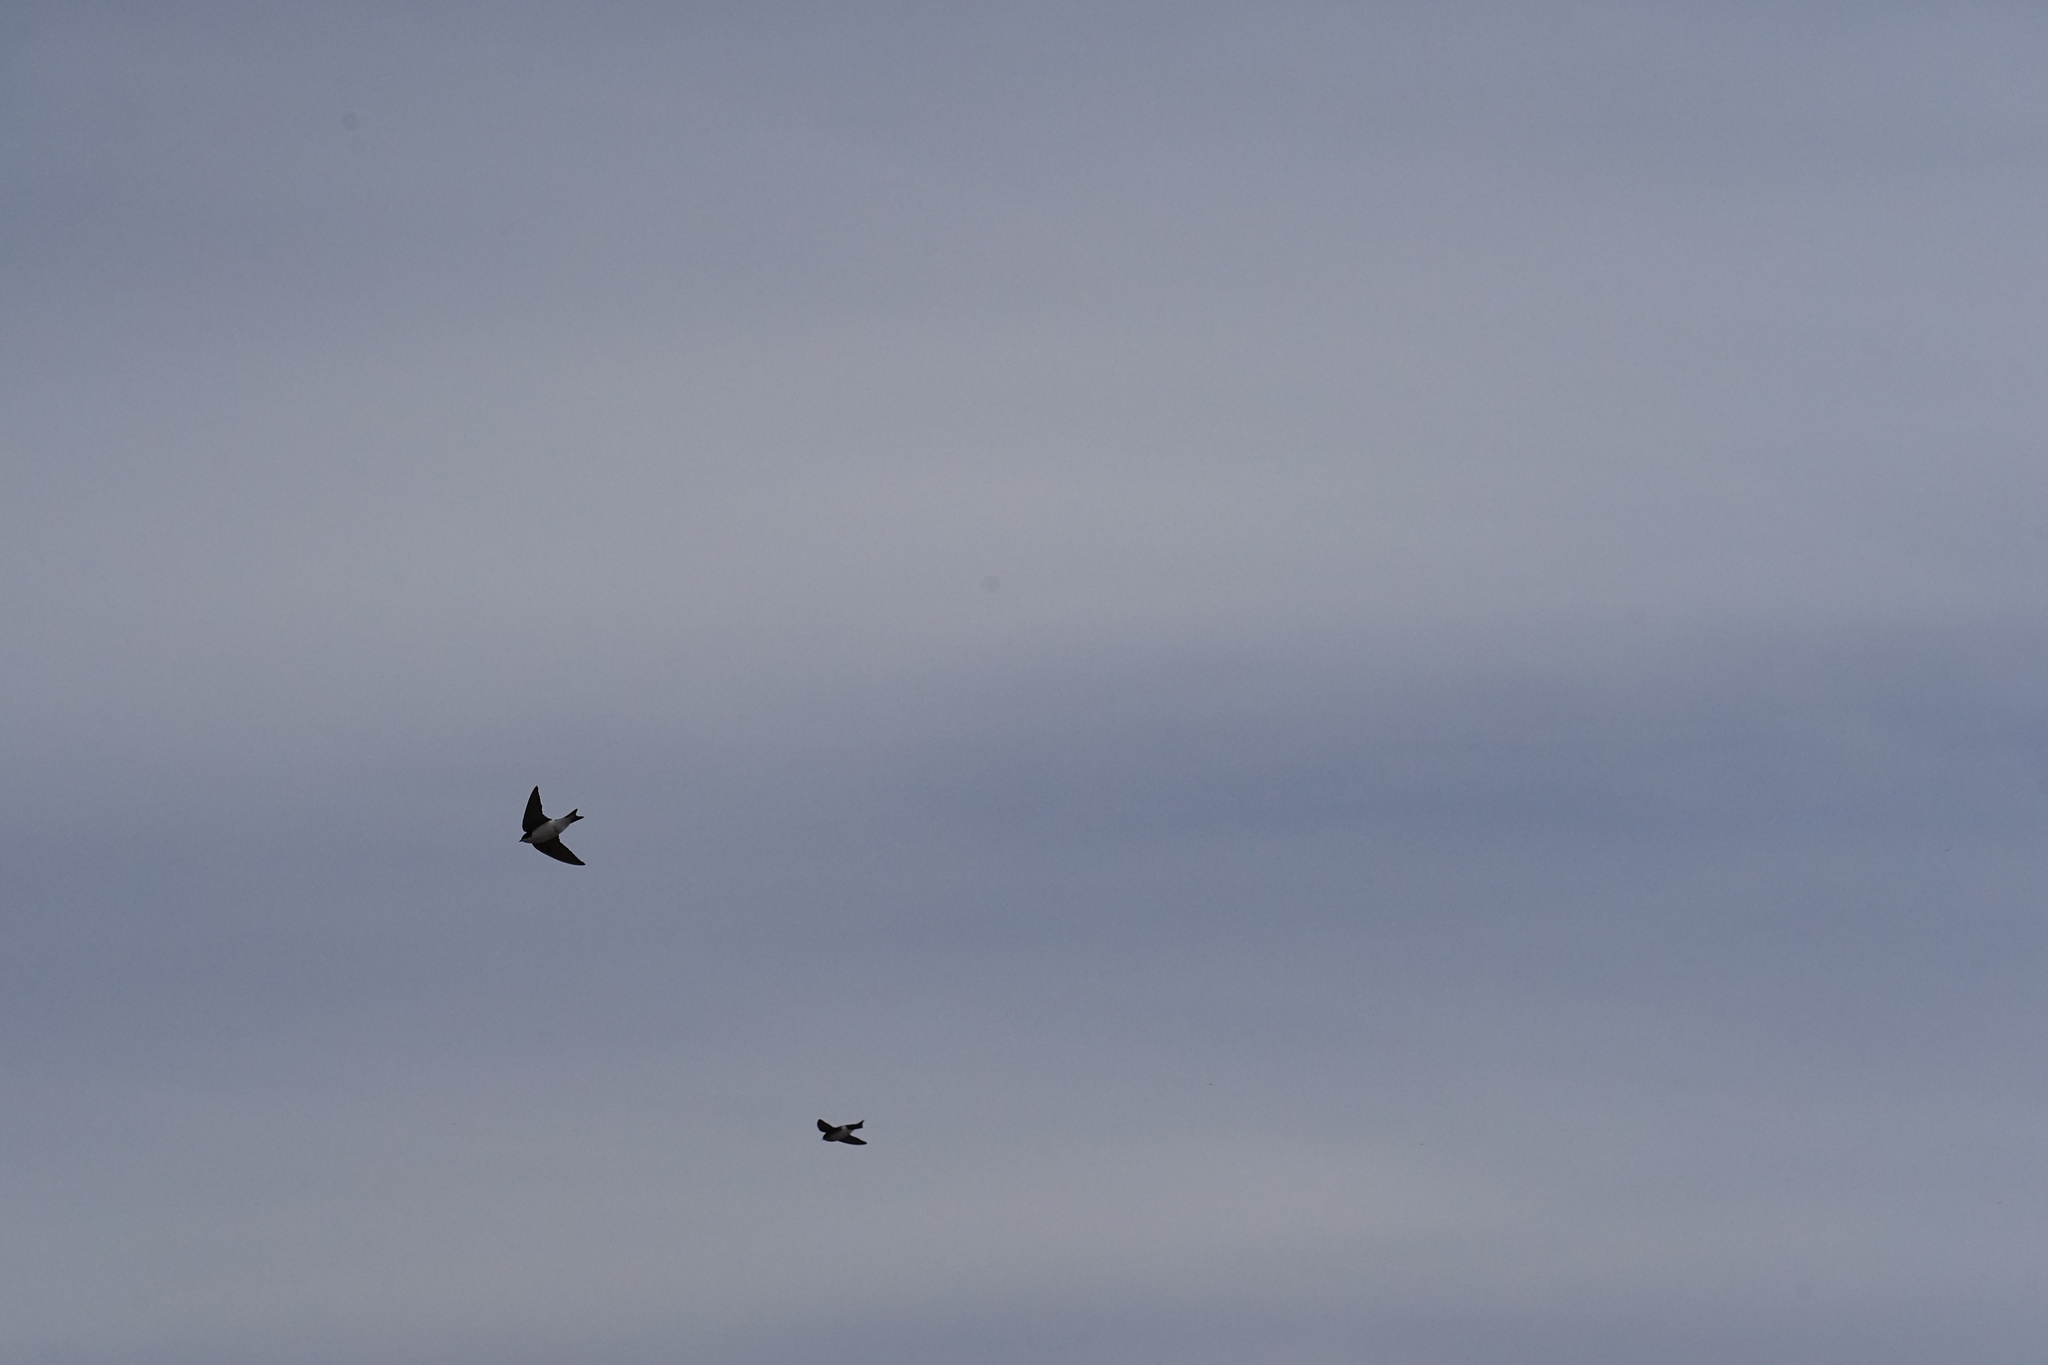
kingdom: Animalia
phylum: Chordata
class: Aves
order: Passeriformes
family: Hirundinidae
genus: Tachycineta
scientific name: Tachycineta bicolor
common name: Tree swallow
